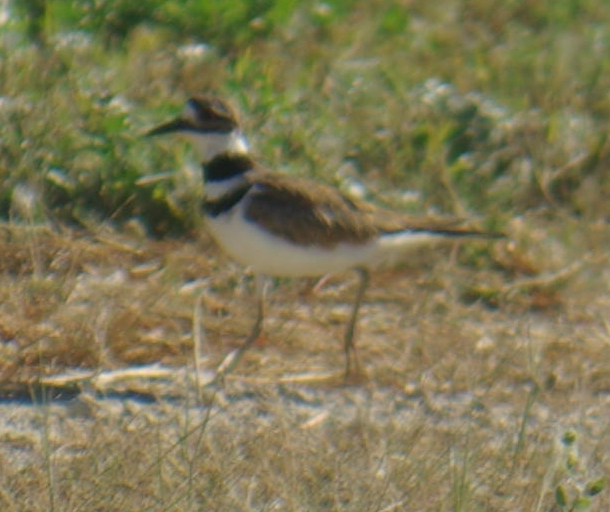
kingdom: Animalia
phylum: Chordata
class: Aves
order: Charadriiformes
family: Charadriidae
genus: Charadrius
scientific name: Charadrius vociferus
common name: Killdeer
